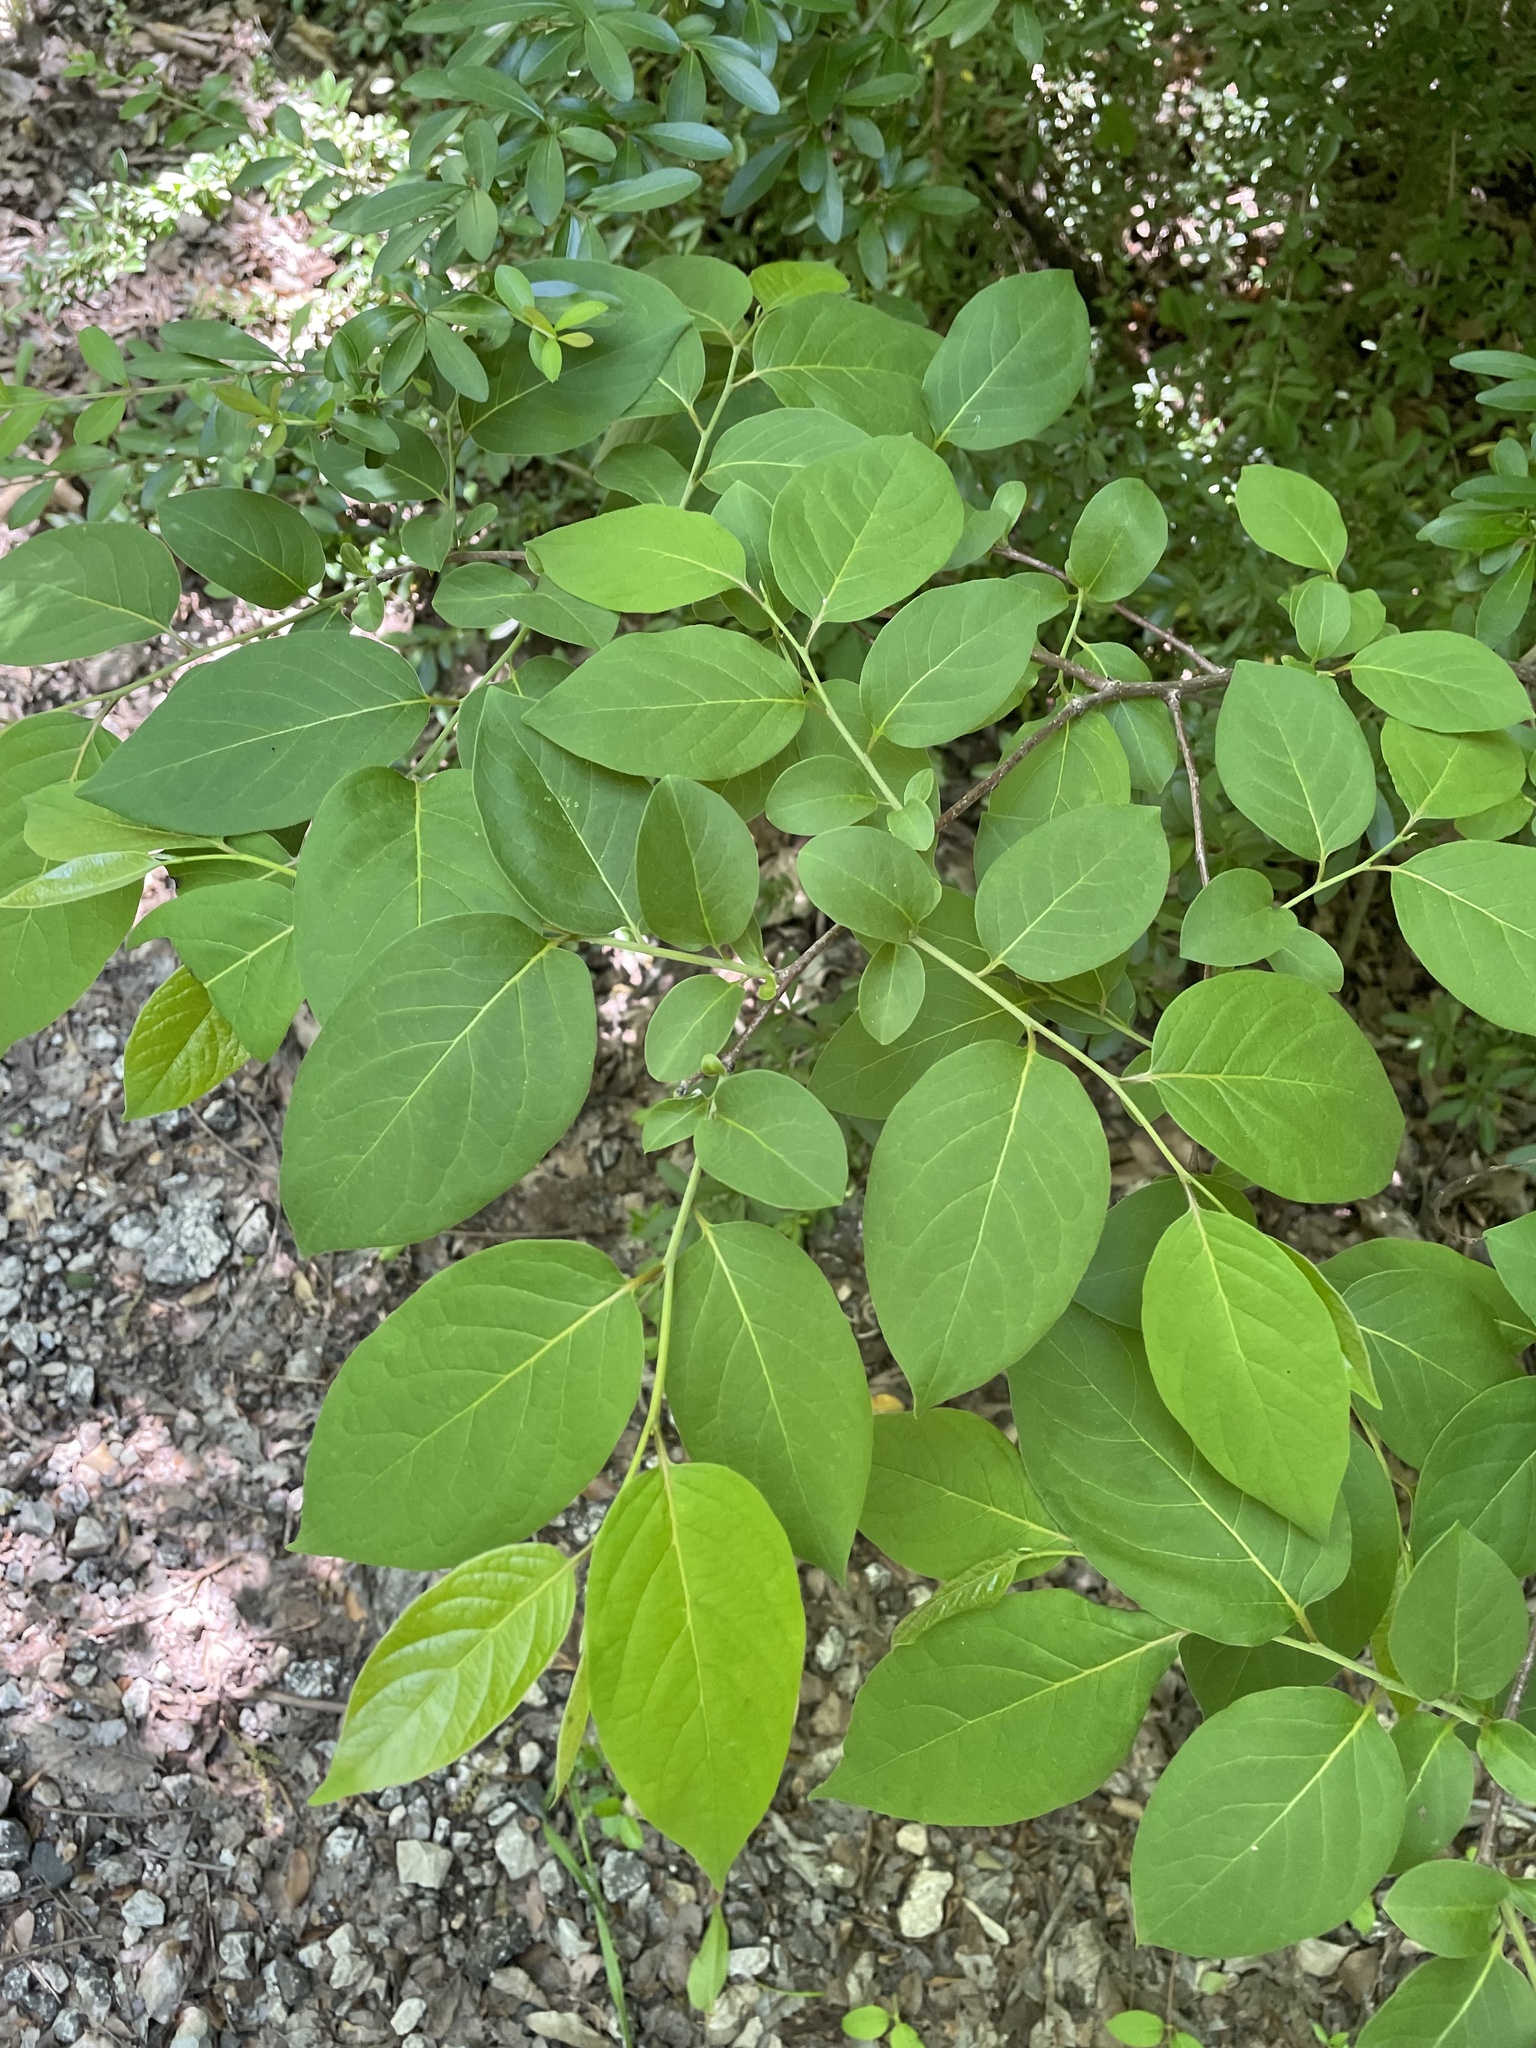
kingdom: Plantae
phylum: Tracheophyta
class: Magnoliopsida
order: Ericales
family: Ebenaceae
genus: Diospyros
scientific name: Diospyros virginiana
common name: Persimmon
